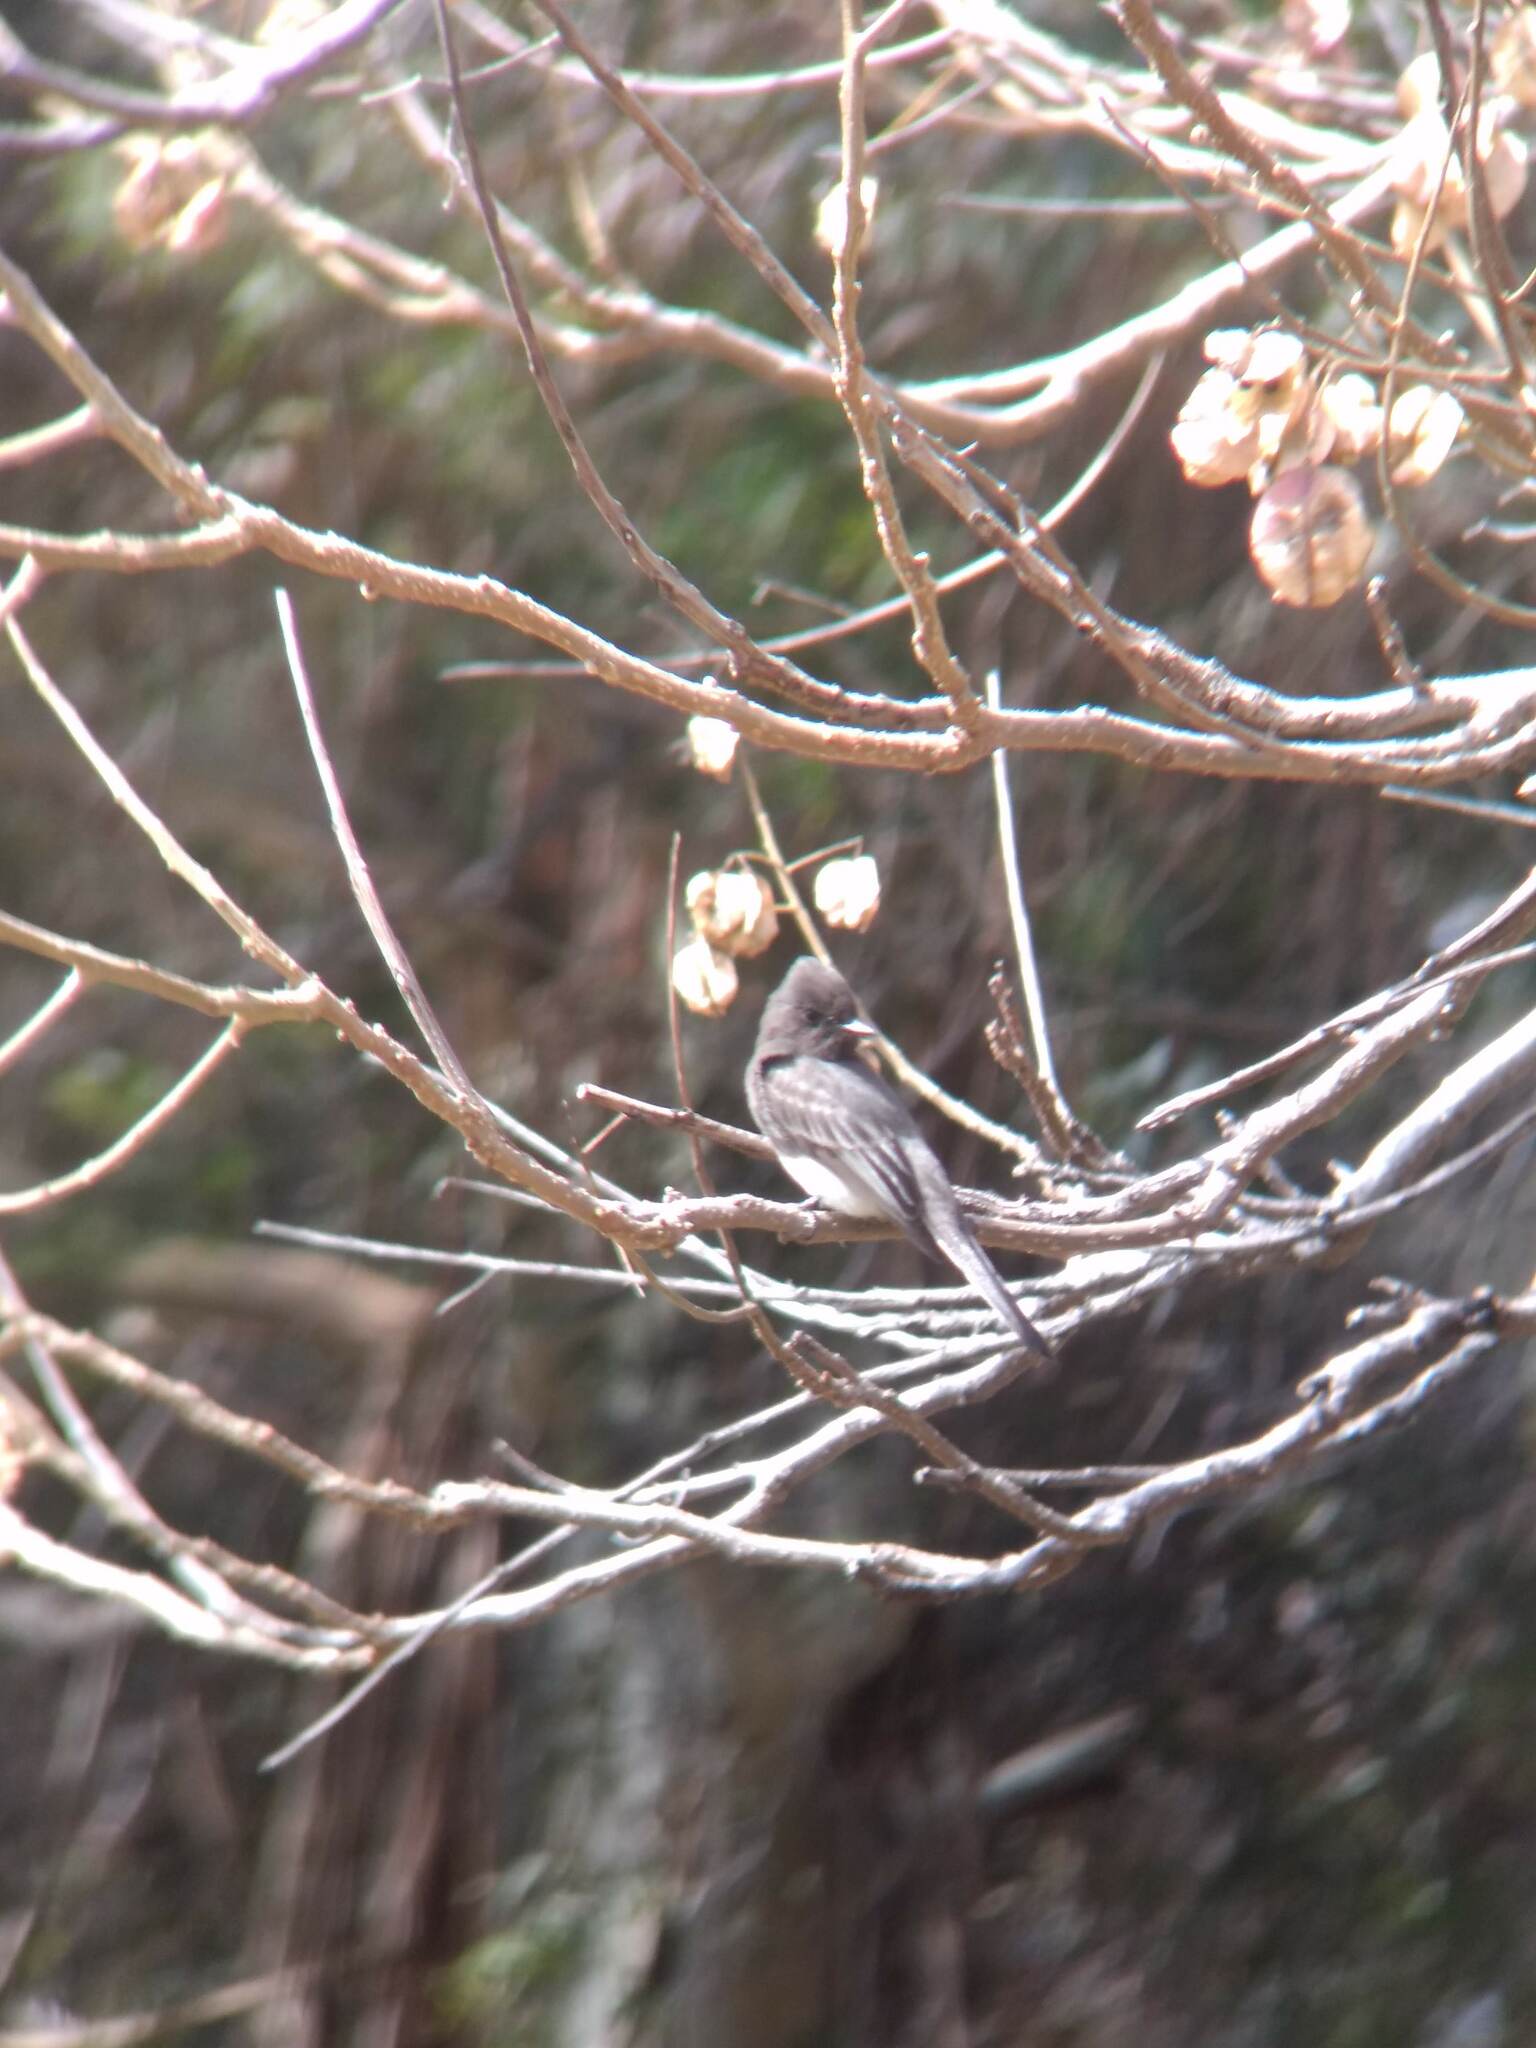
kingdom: Animalia
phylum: Chordata
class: Aves
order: Passeriformes
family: Tyrannidae
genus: Sayornis
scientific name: Sayornis nigricans
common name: Black phoebe
